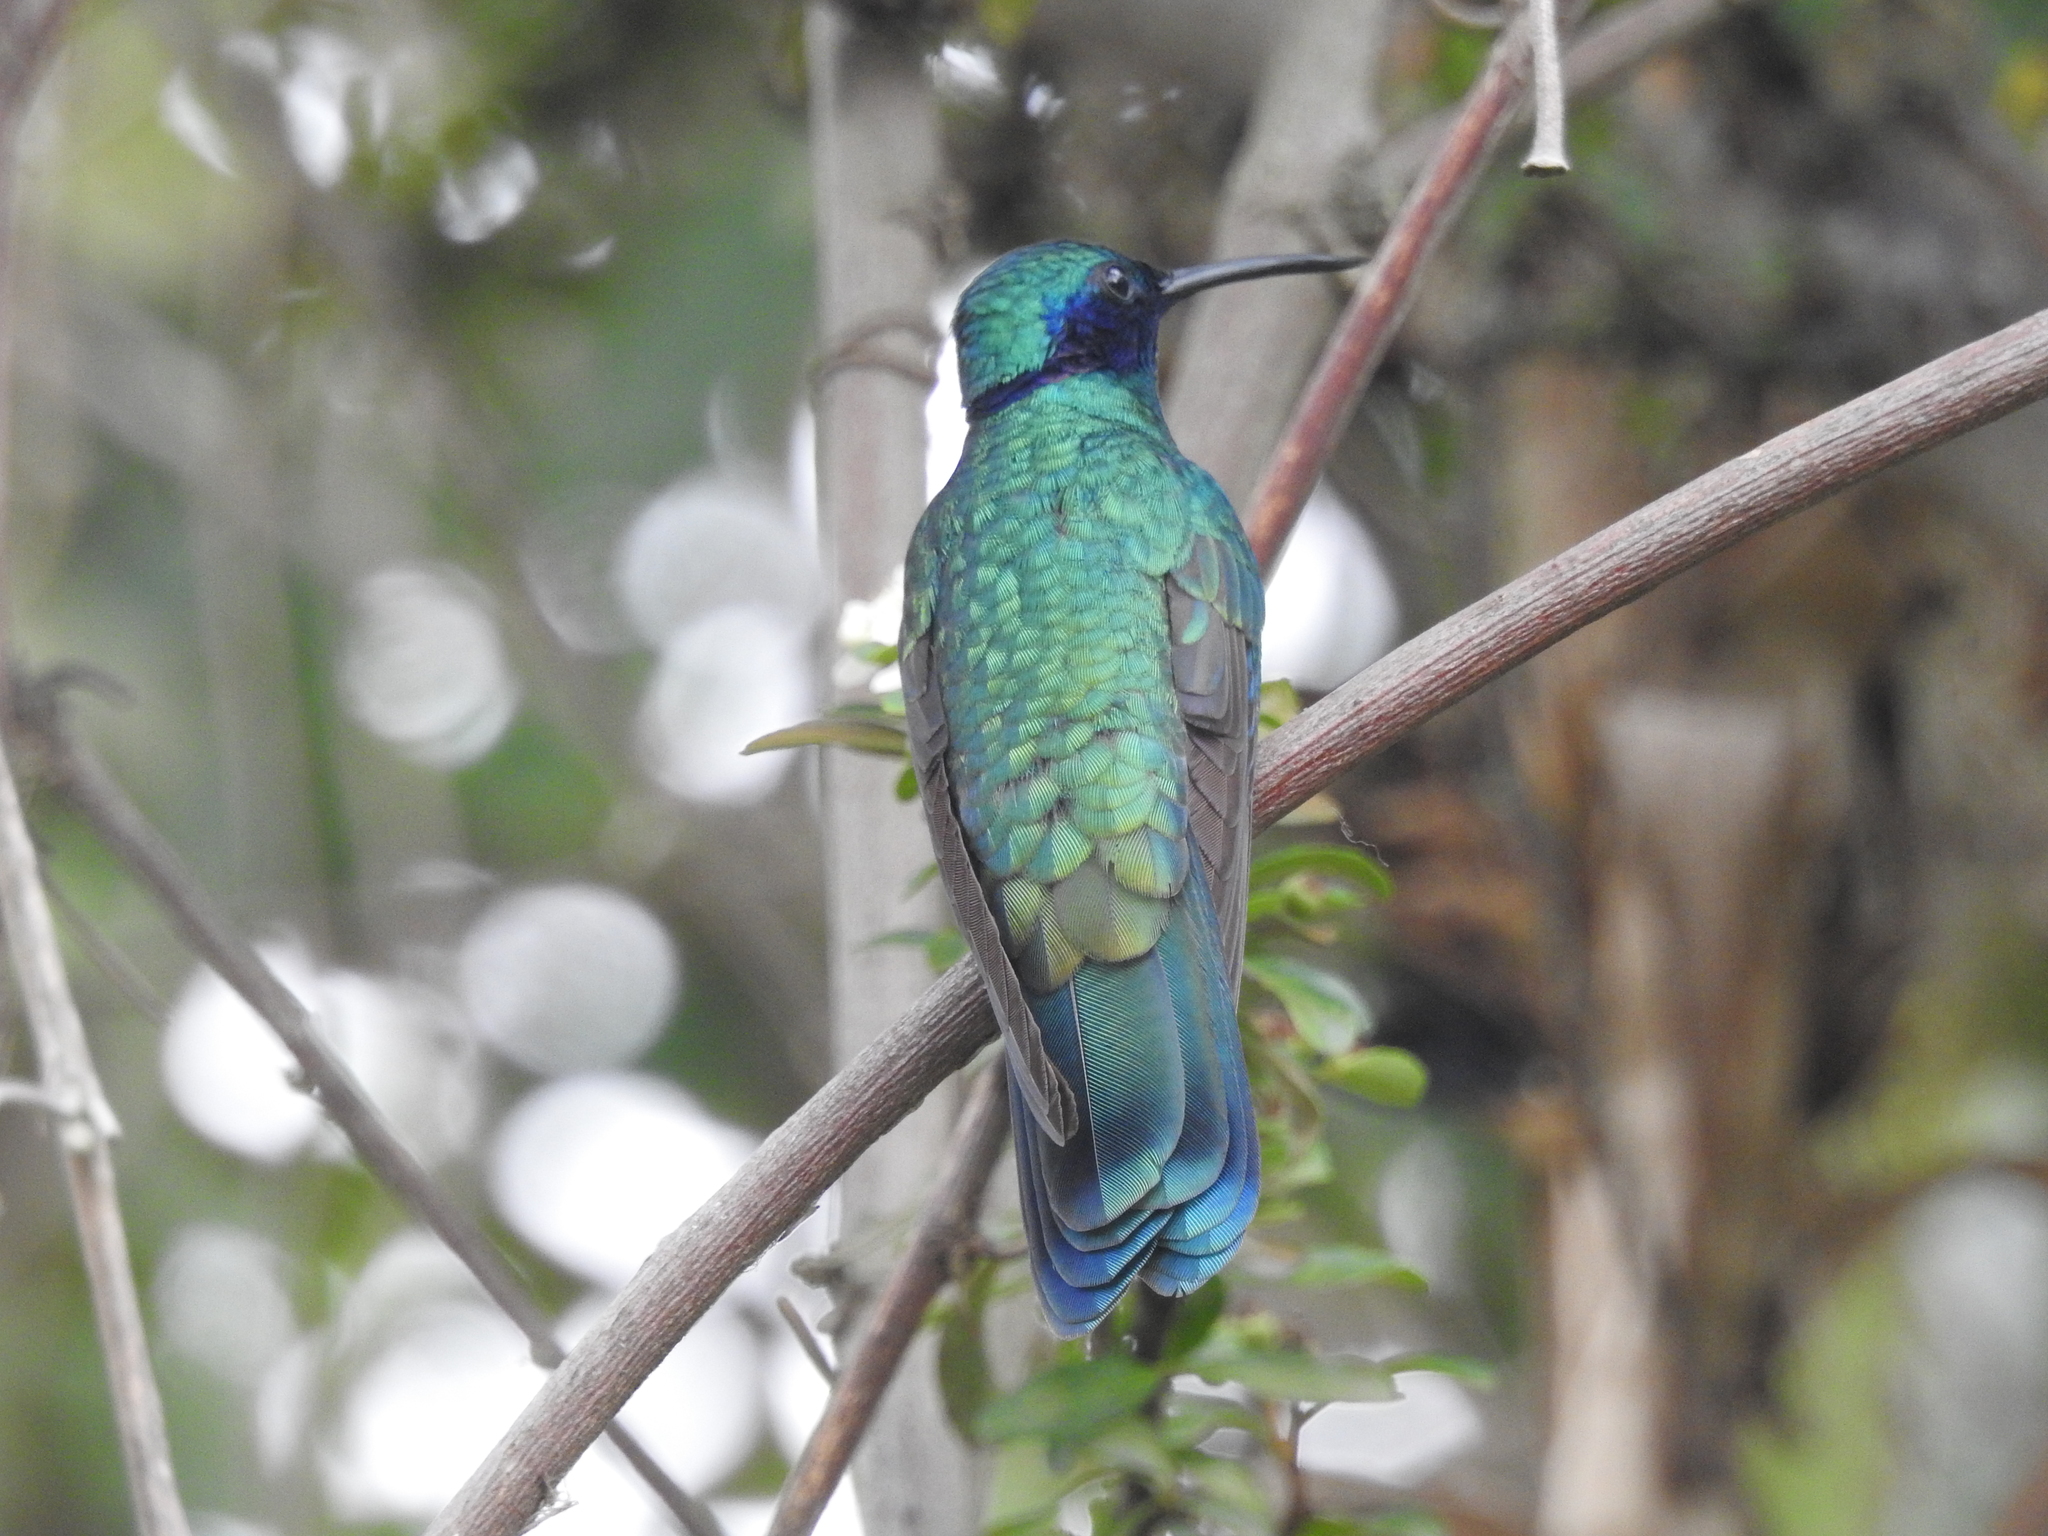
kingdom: Animalia
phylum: Chordata
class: Aves
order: Apodiformes
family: Trochilidae
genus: Colibri
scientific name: Colibri coruscans
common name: Sparkling violetear
